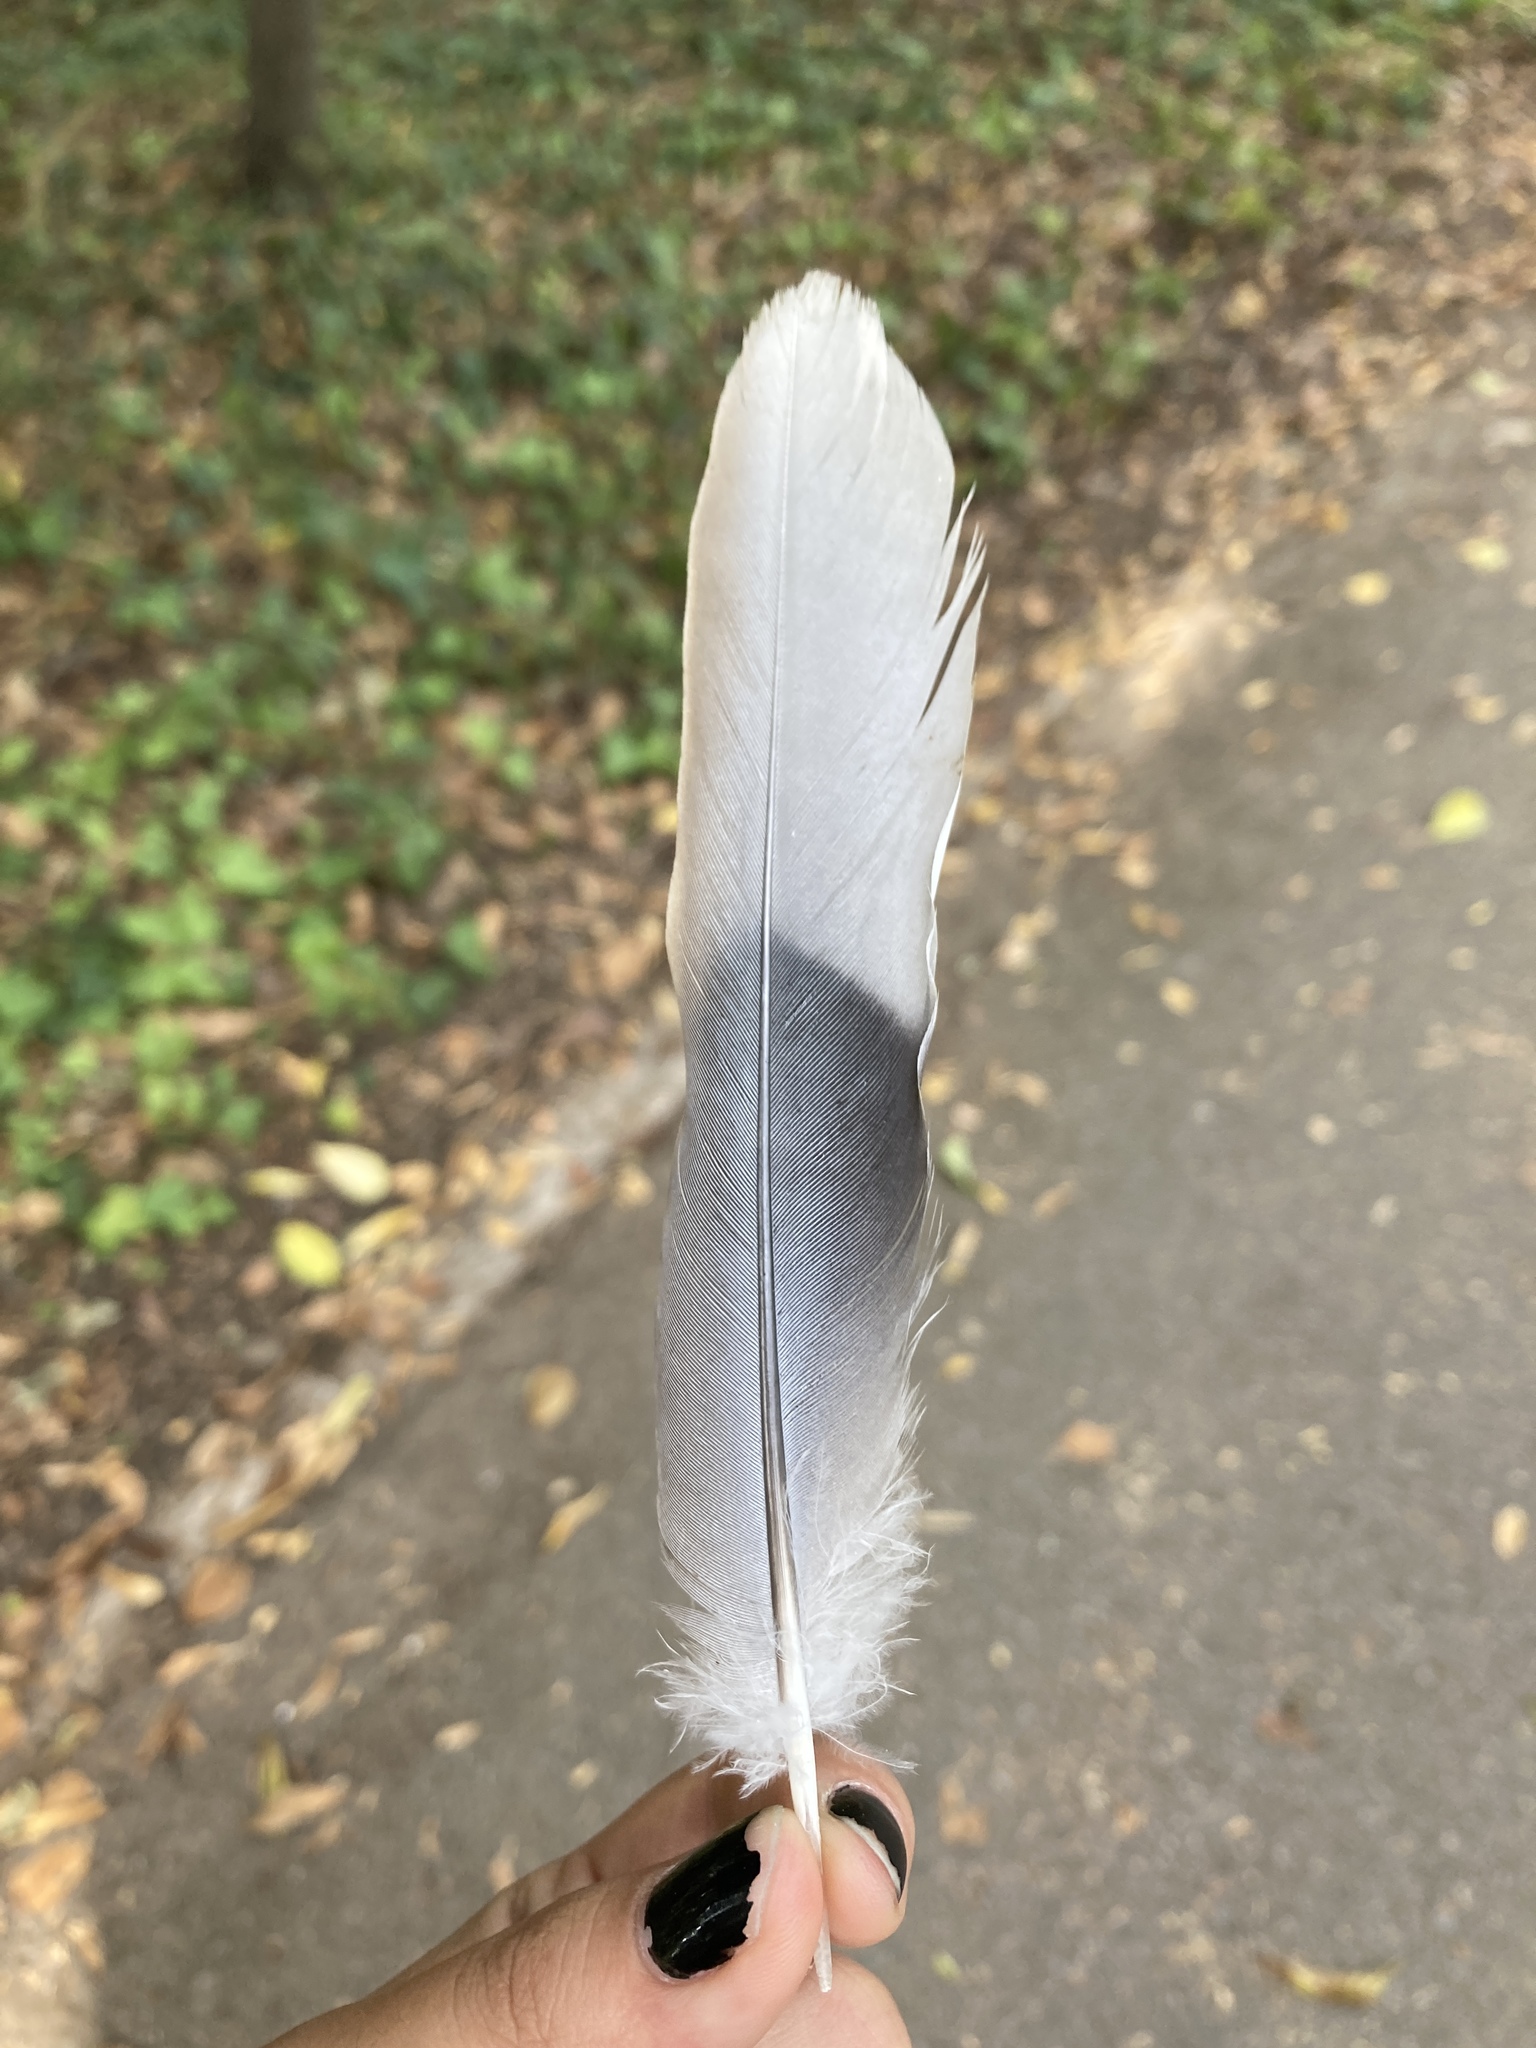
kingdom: Animalia
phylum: Chordata
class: Aves
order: Columbiformes
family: Columbidae
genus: Streptopelia
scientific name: Streptopelia decaocto
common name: Eurasian collared dove
